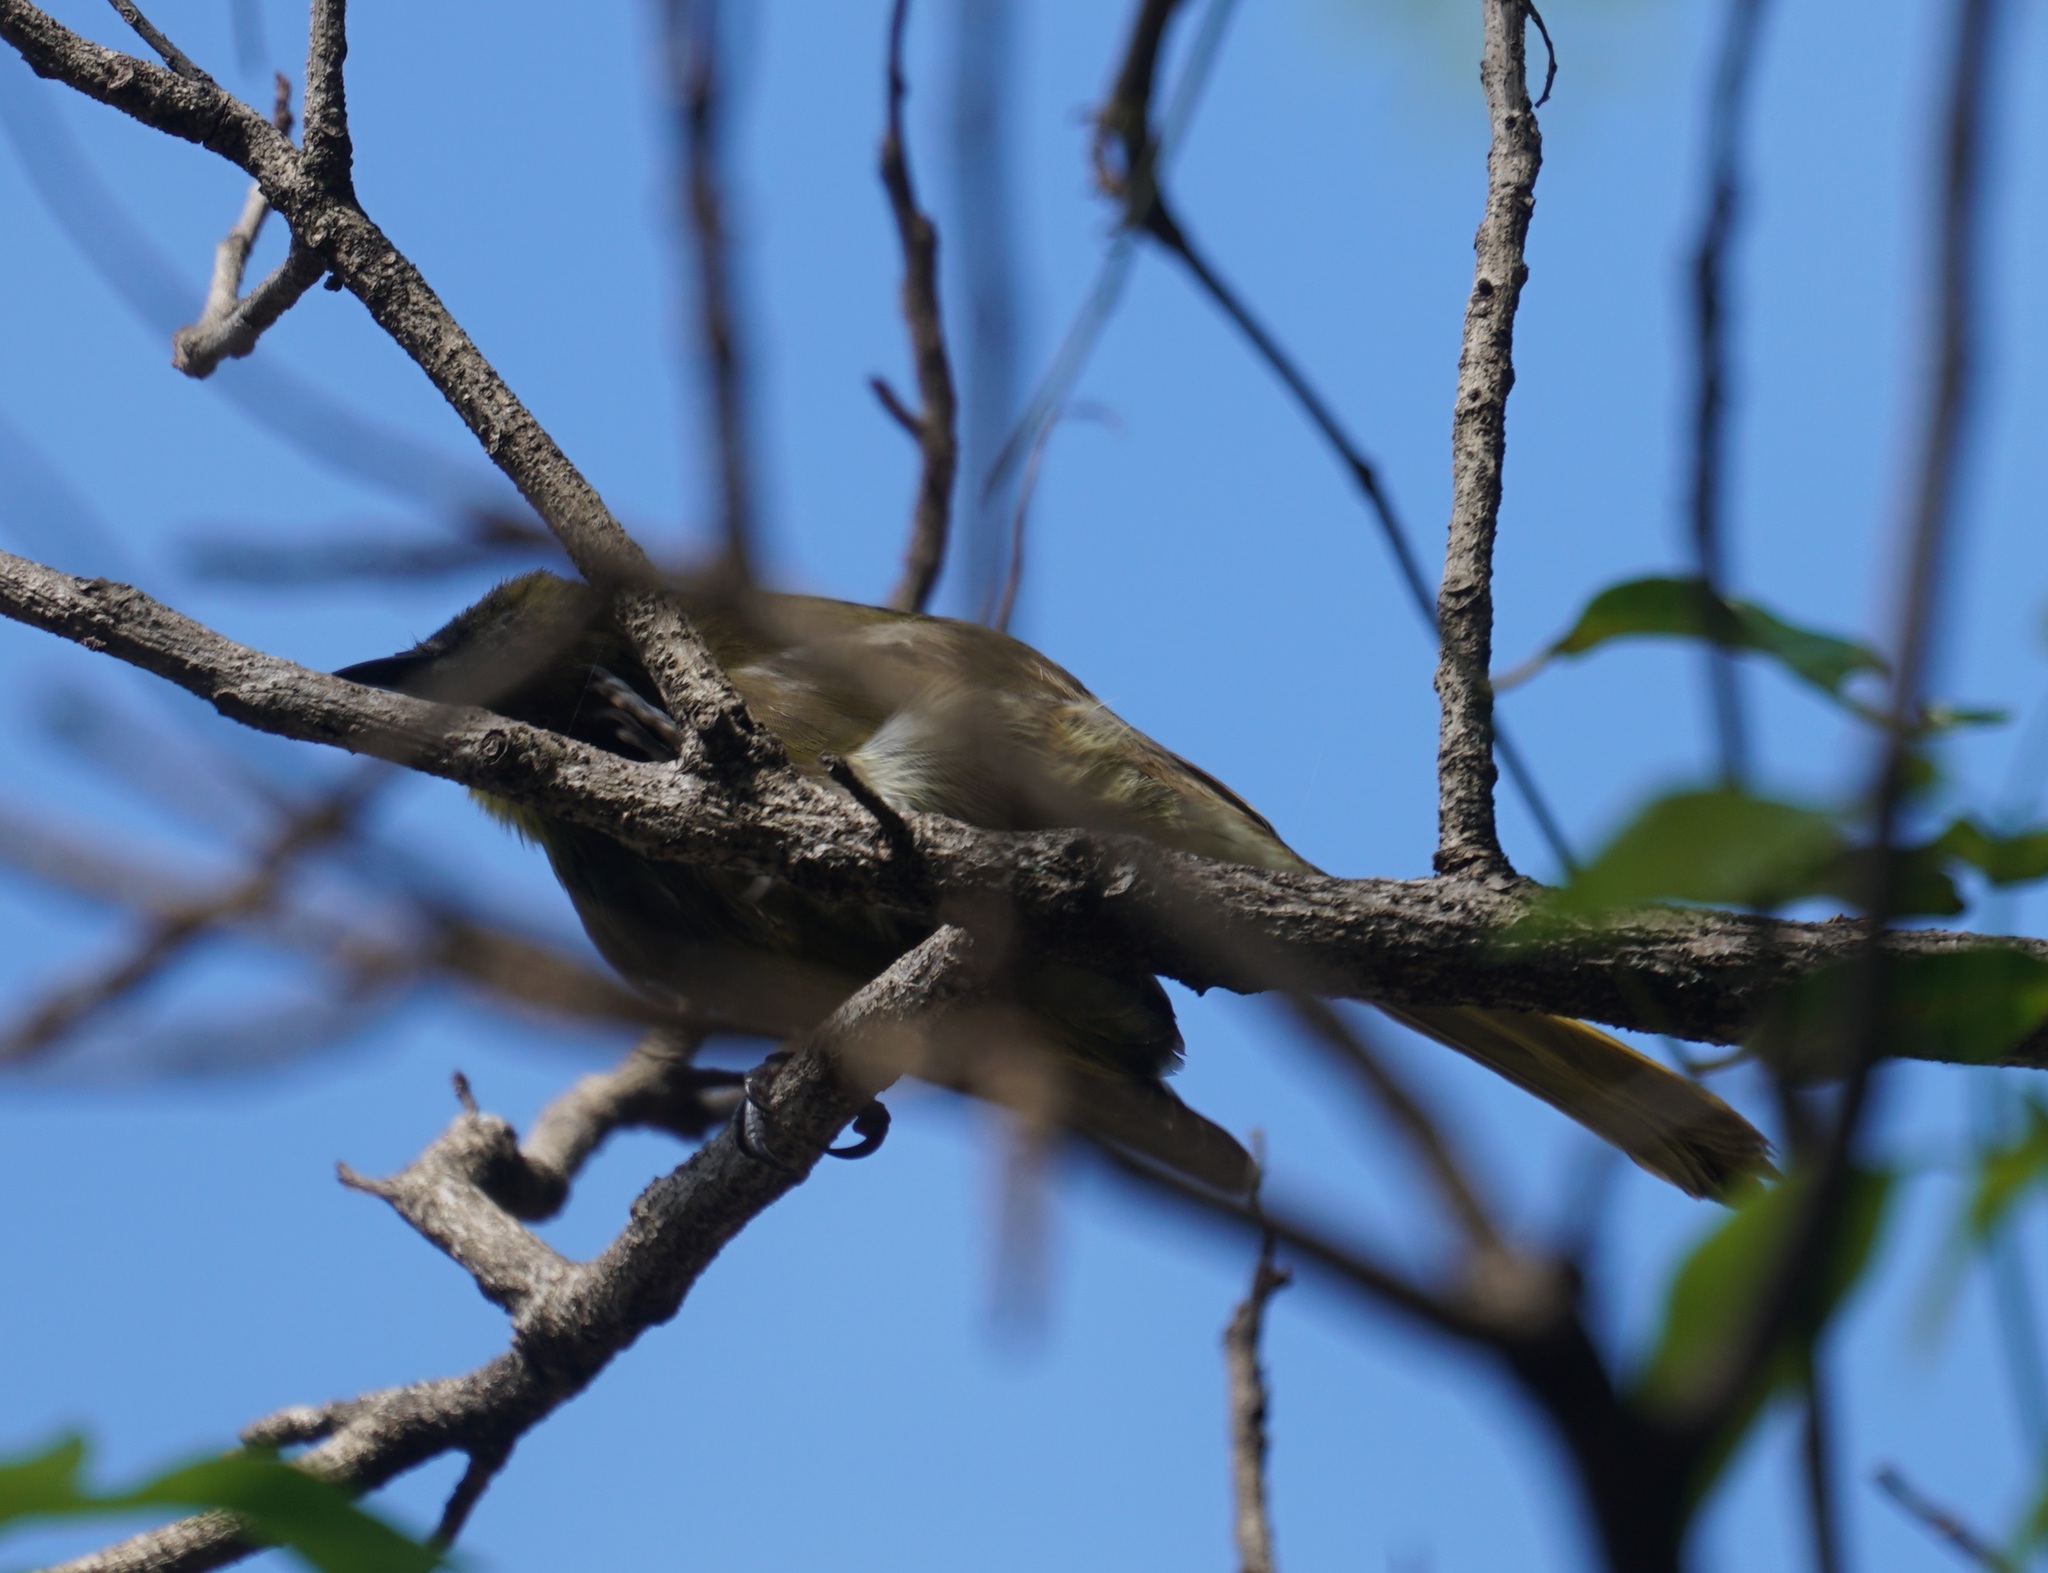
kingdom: Animalia
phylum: Chordata
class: Aves
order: Passeriformes
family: Meliphagidae
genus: Gavicalis
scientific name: Gavicalis versicolor
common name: Varied honeyeater
